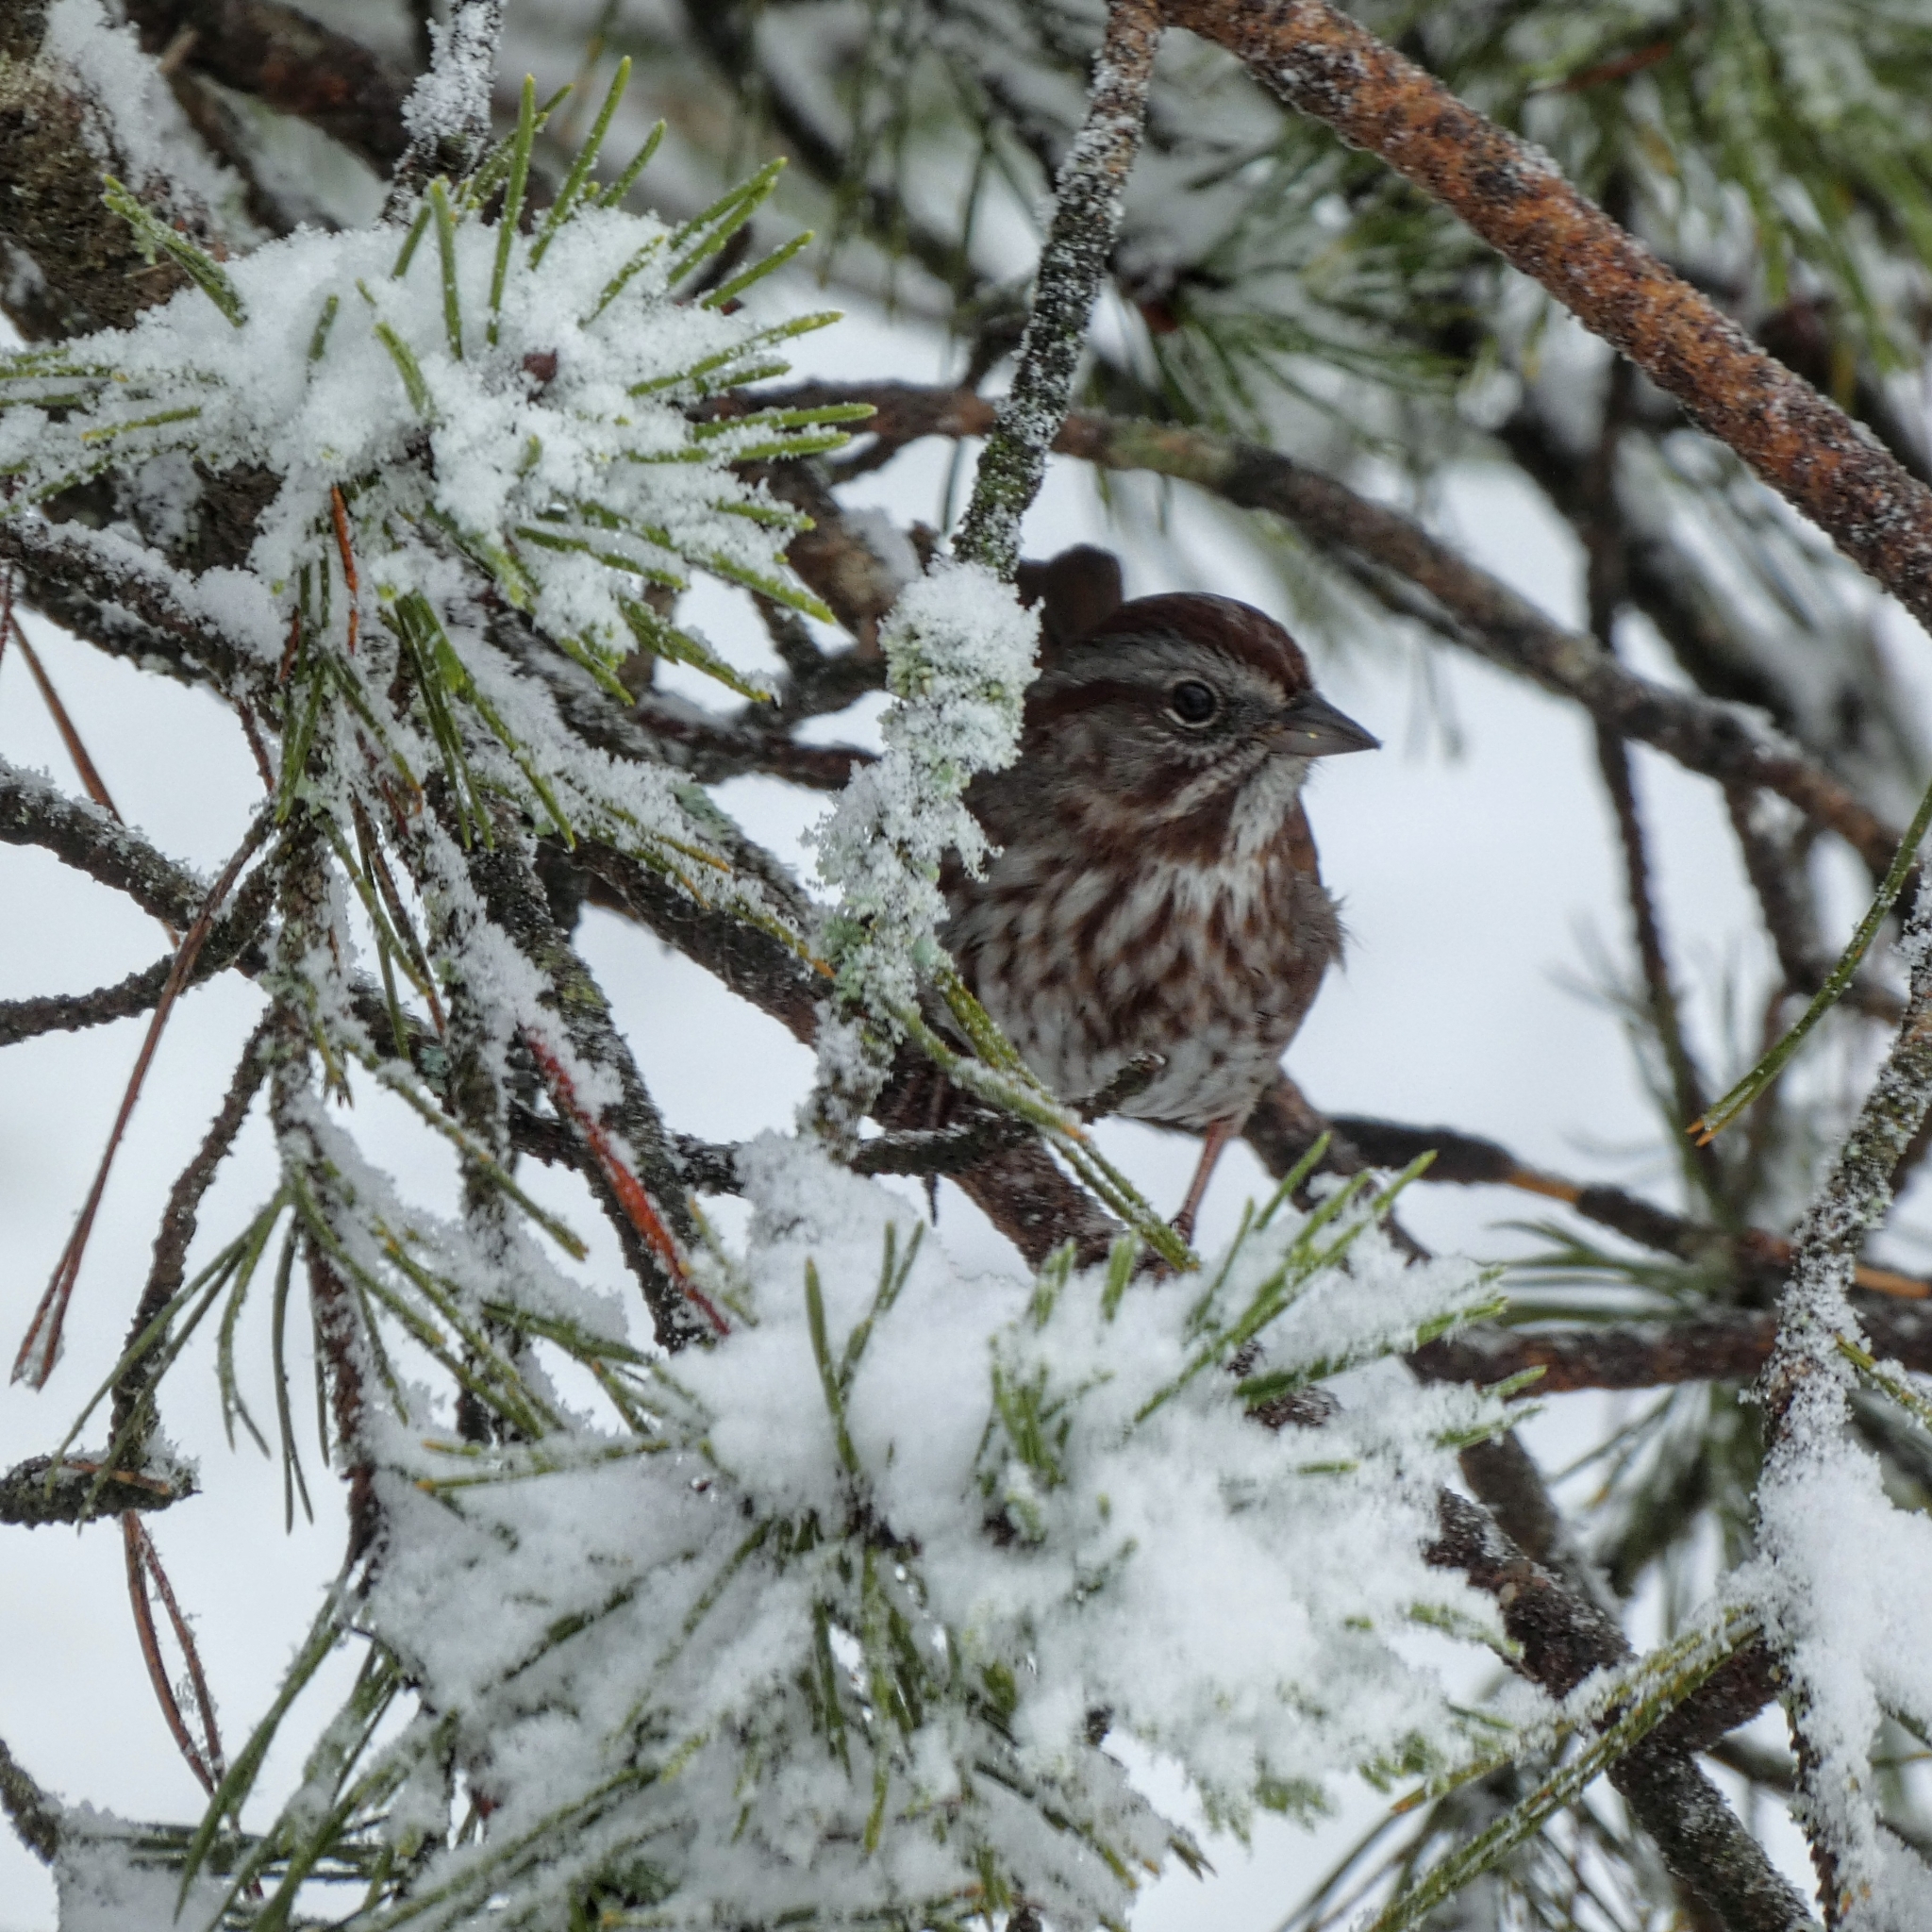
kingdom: Animalia
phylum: Chordata
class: Aves
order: Passeriformes
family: Passerellidae
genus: Melospiza
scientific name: Melospiza melodia
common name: Song sparrow
